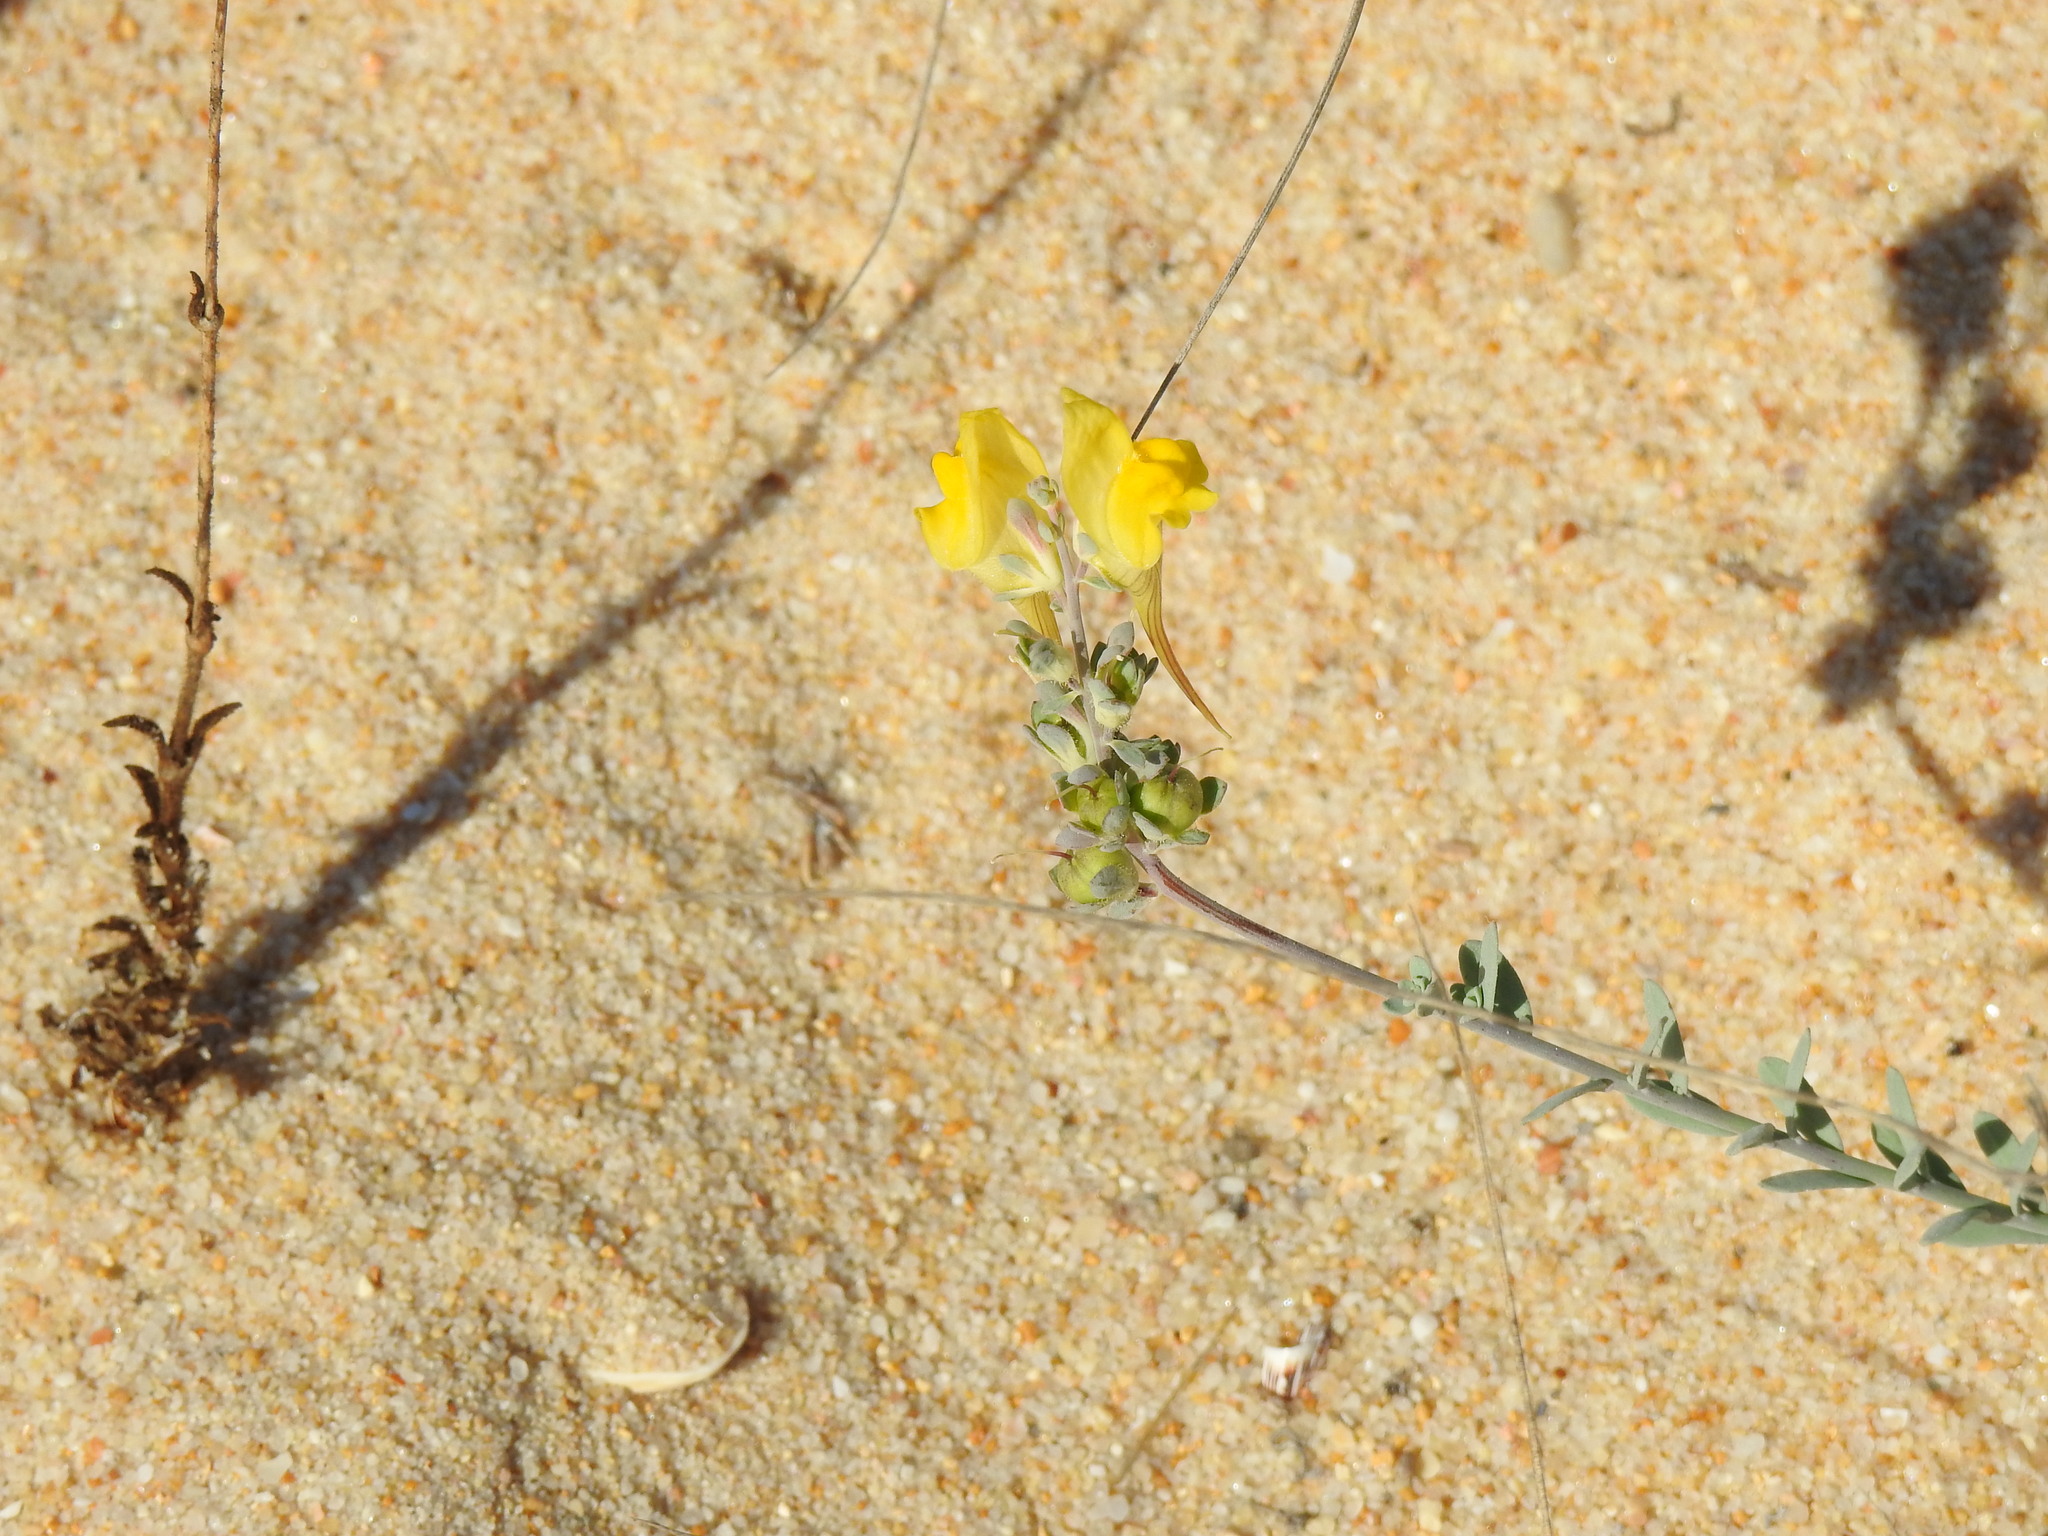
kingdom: Plantae
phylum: Tracheophyta
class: Magnoliopsida
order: Lamiales
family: Plantaginaceae
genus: Linaria
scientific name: Linaria polygalifolia
